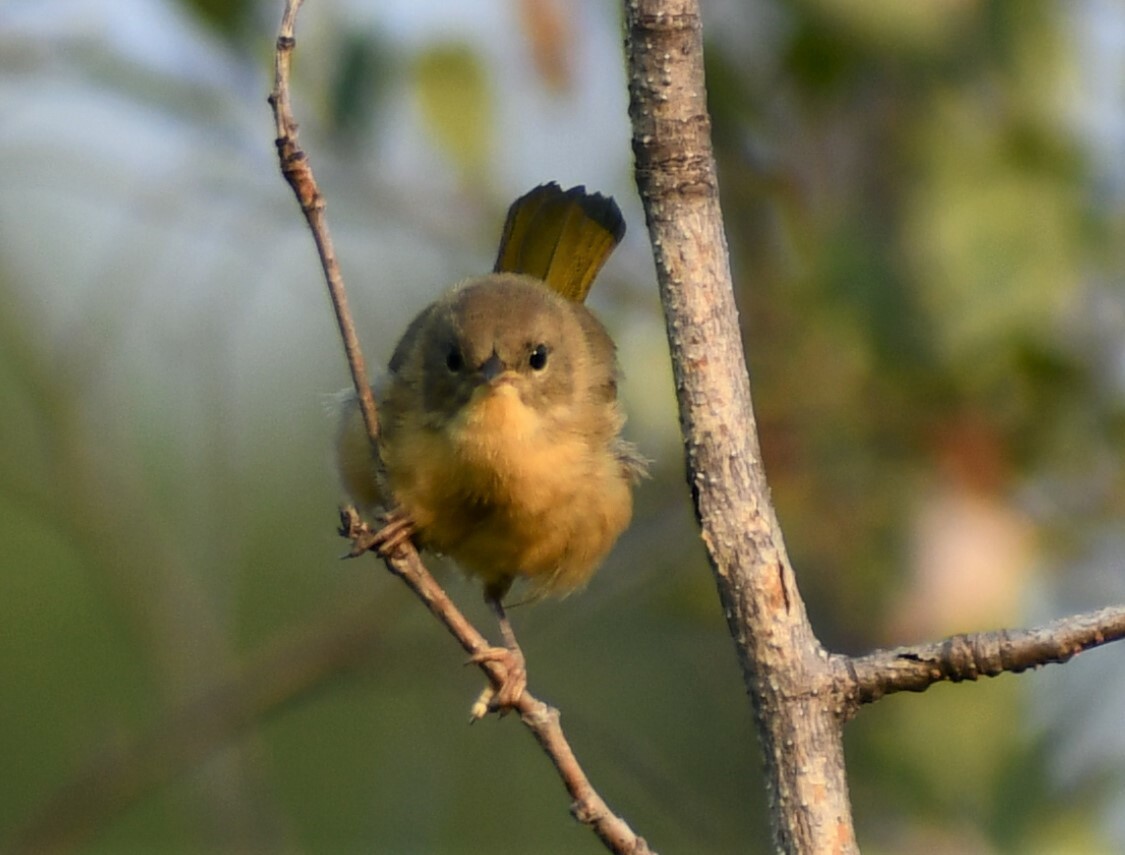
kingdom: Animalia
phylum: Chordata
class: Aves
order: Passeriformes
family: Parulidae
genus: Geothlypis
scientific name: Geothlypis trichas
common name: Common yellowthroat
